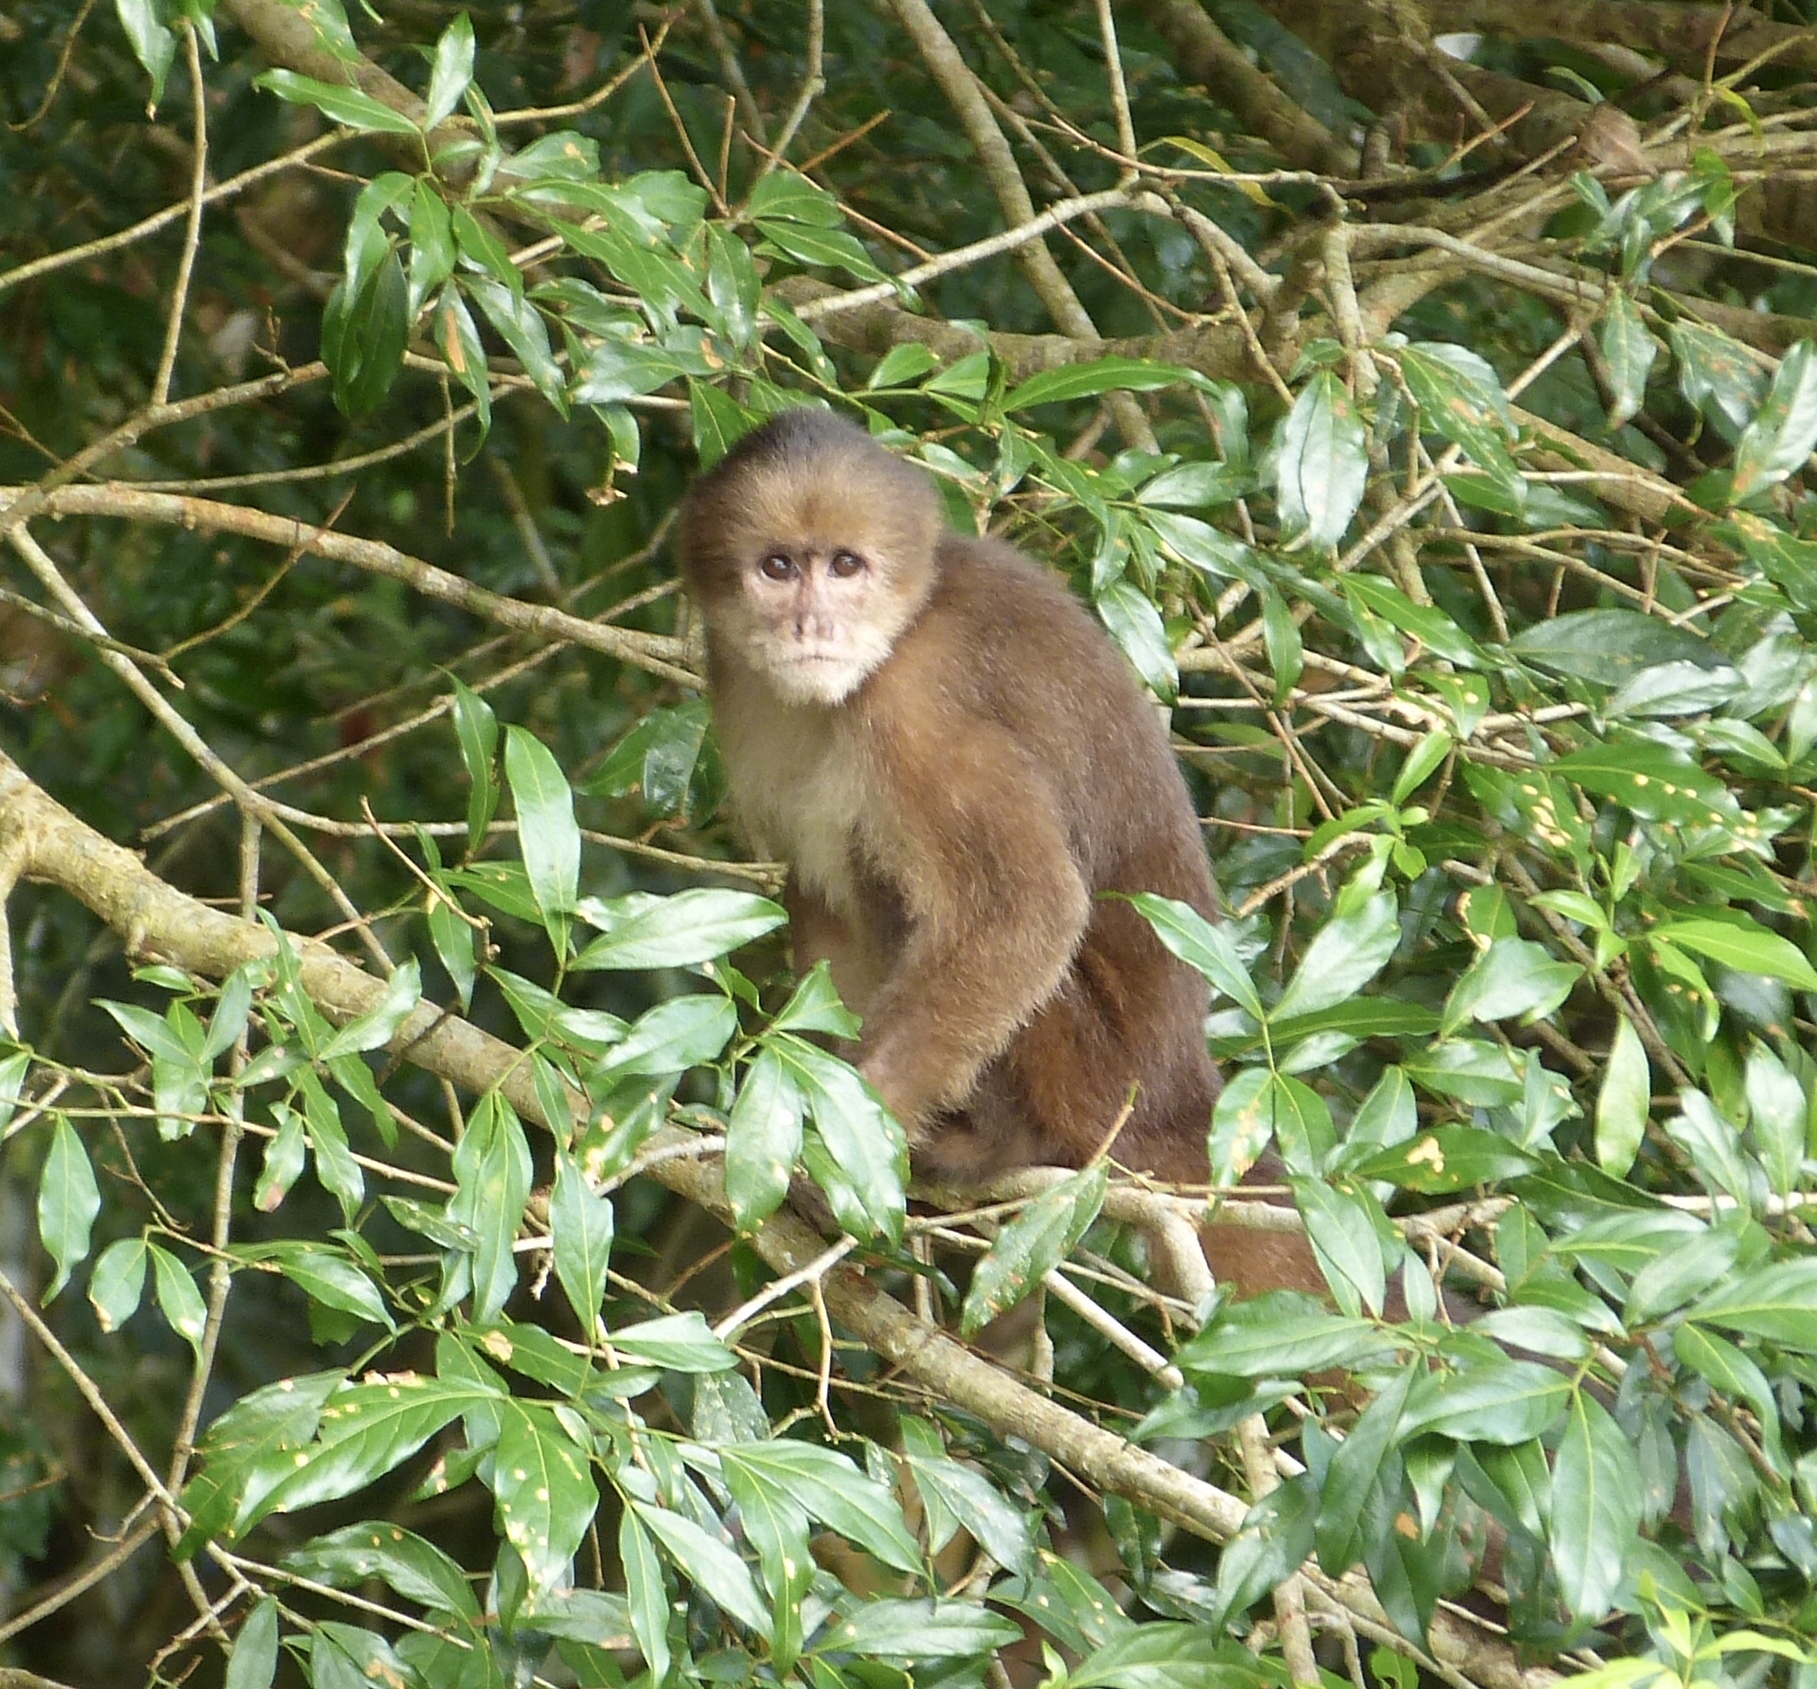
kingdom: Animalia
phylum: Chordata
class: Mammalia
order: Primates
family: Cebidae
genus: Cebus
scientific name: Cebus yuracus
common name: Peruvian white-fronted capuchin
